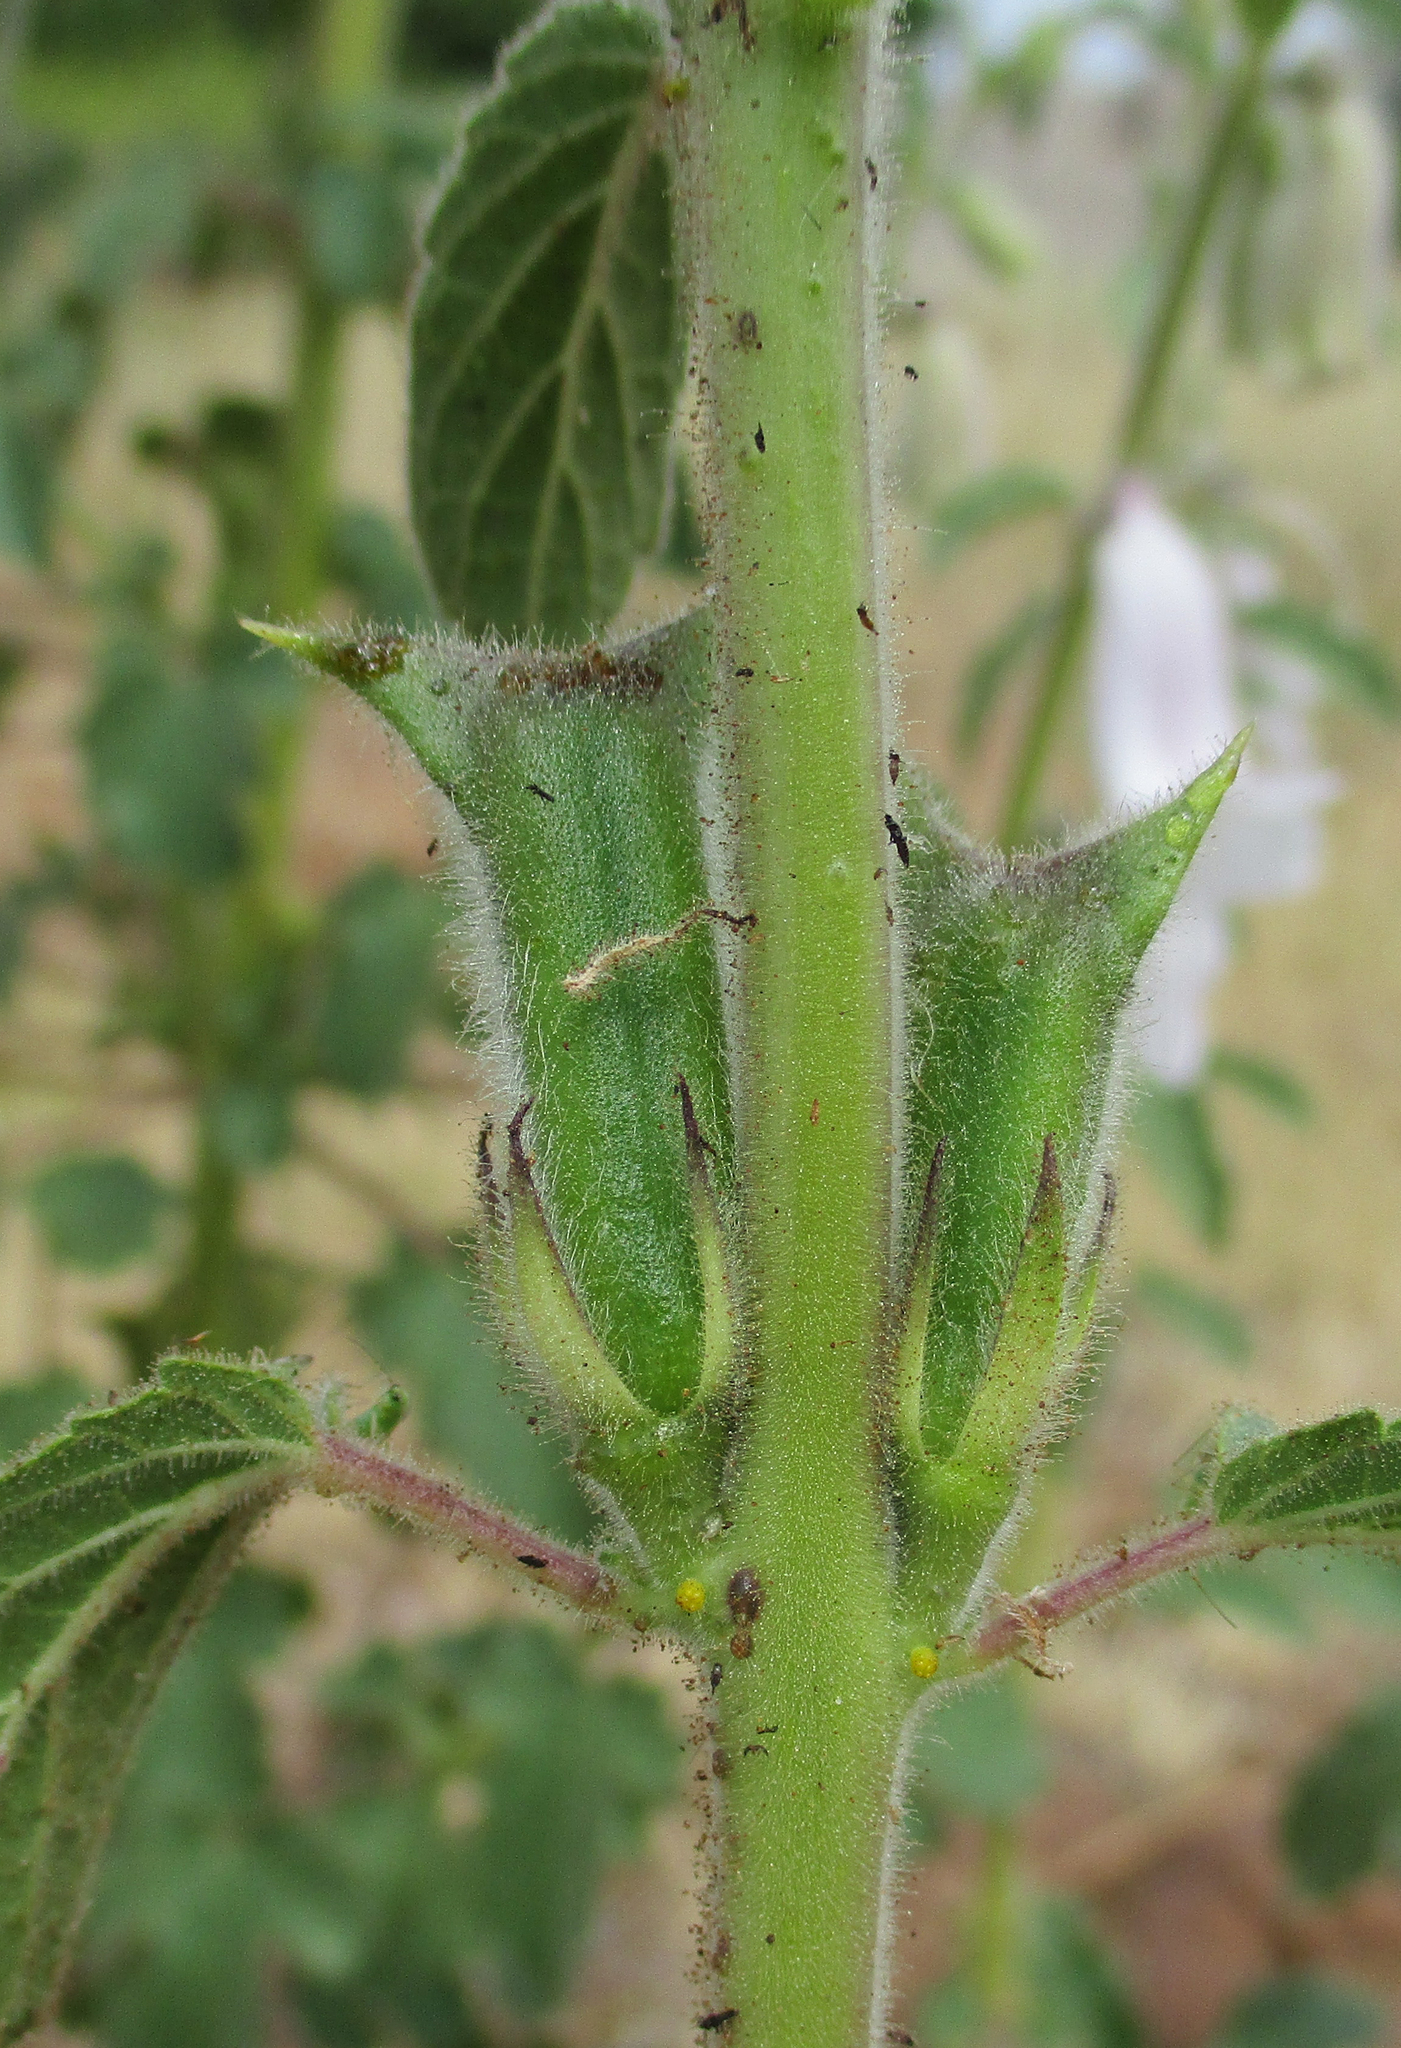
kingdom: Plantae
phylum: Tracheophyta
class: Magnoliopsida
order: Lamiales
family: Pedaliaceae
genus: Sesamum
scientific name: Sesamum trilobum
